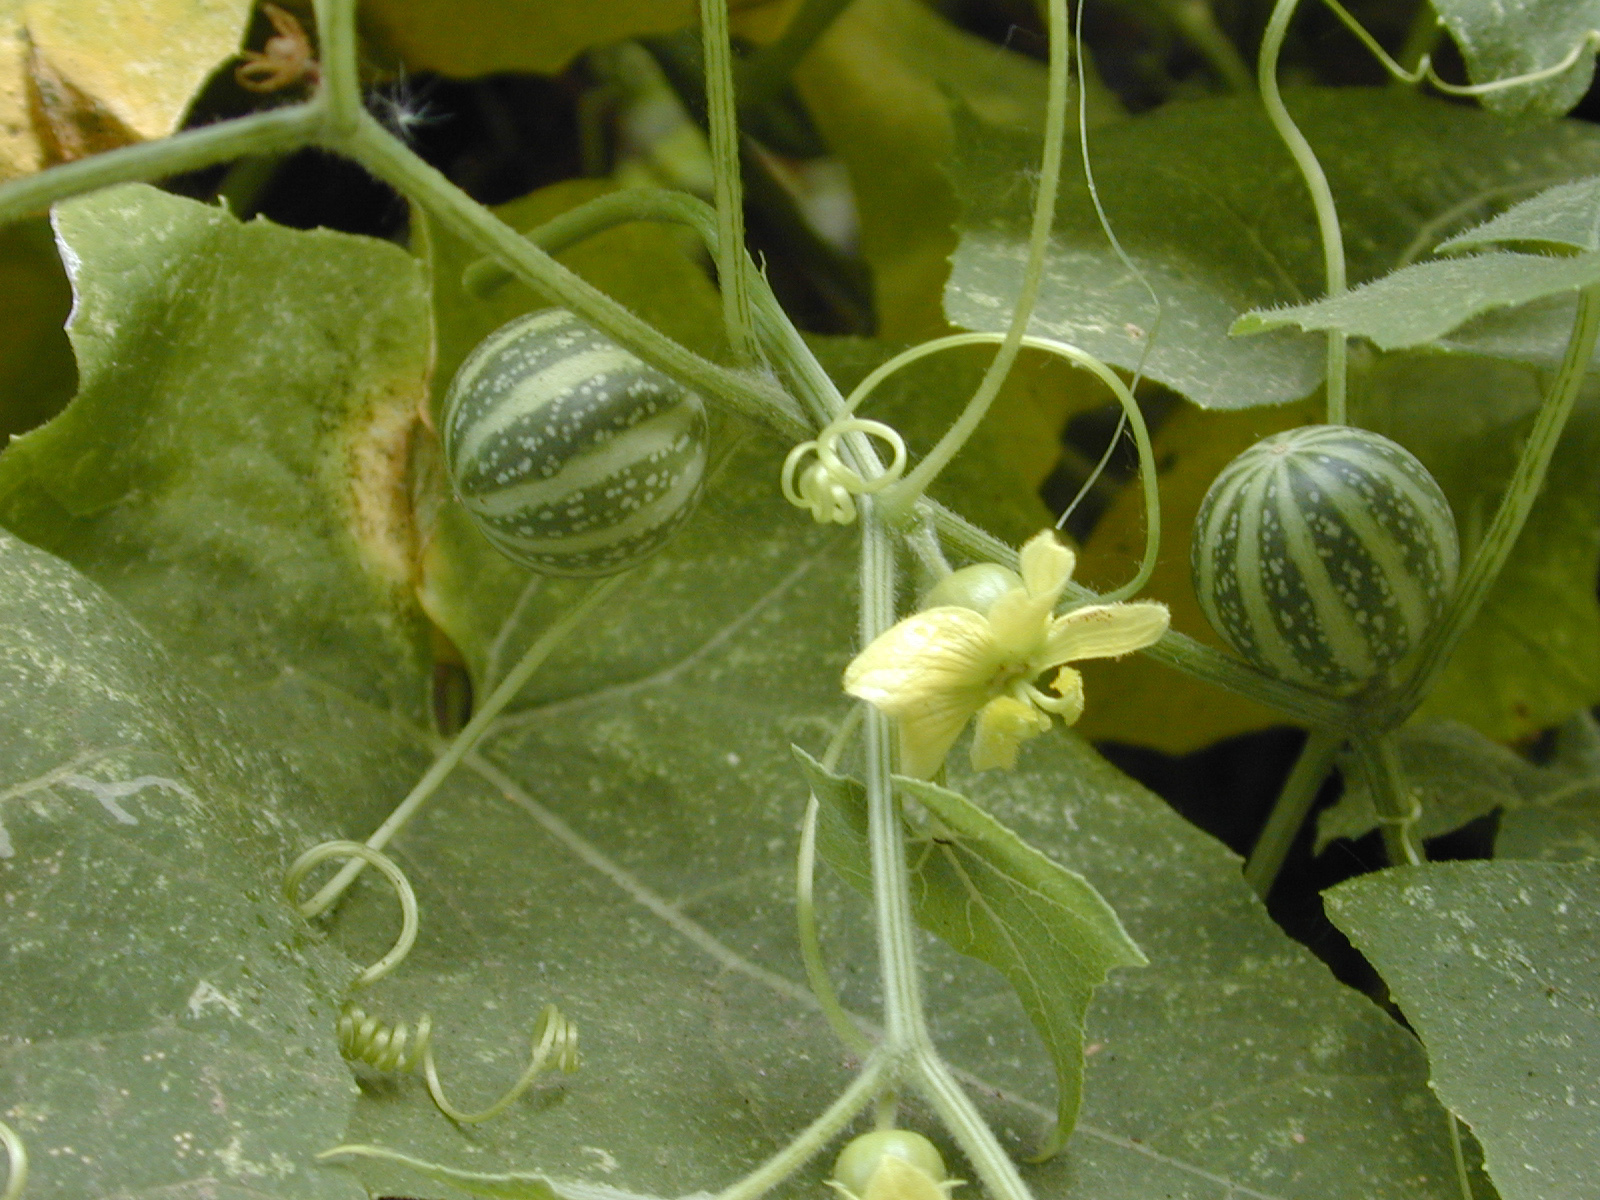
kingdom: Plantae
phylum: Tracheophyta
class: Magnoliopsida
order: Cucurbitales
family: Cucurbitaceae
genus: Bryonia
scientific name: Bryonia verrucosa
